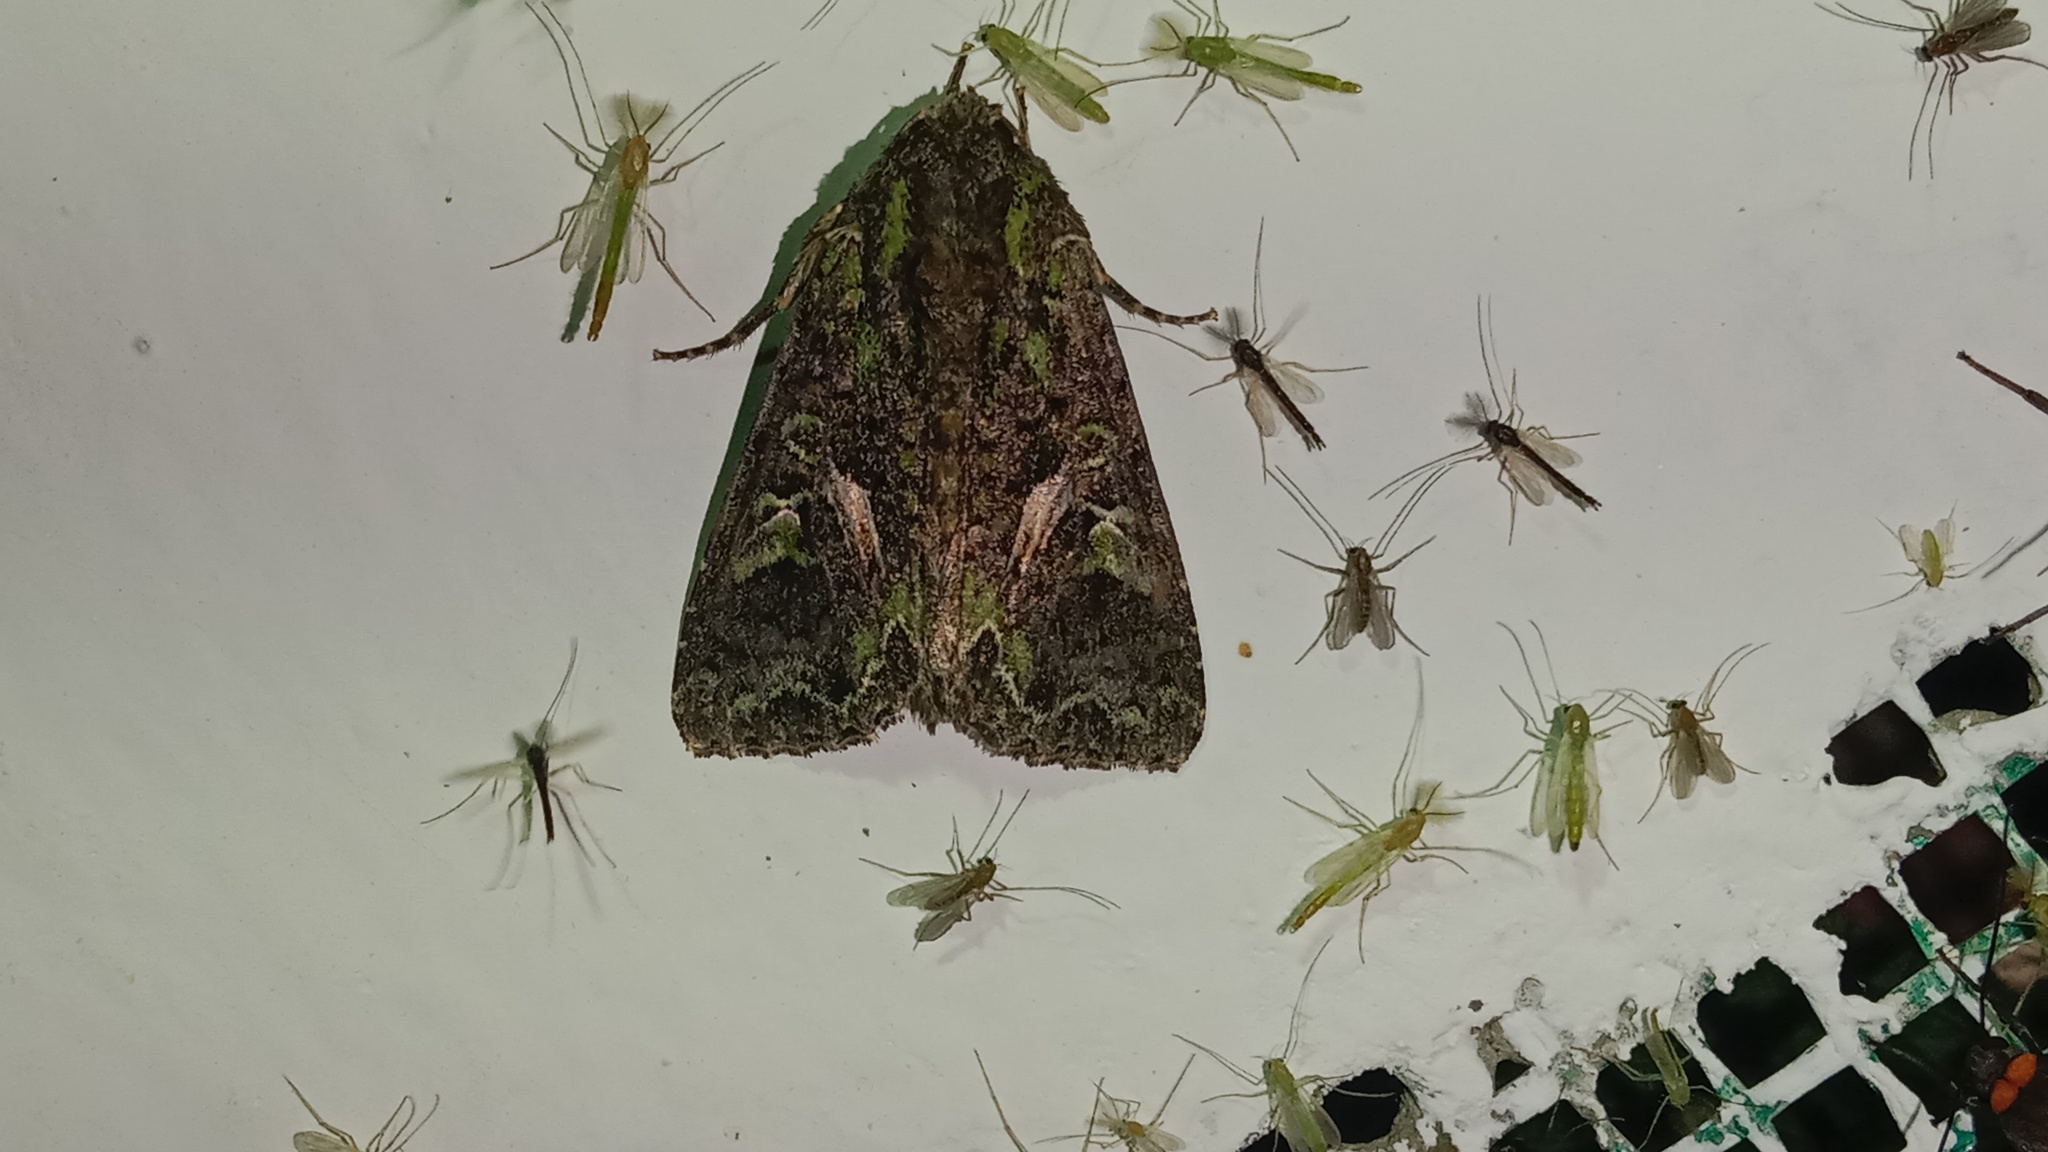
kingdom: Animalia
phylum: Arthropoda
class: Insecta
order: Lepidoptera
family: Noctuidae
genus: Trachea
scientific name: Trachea atriplicis
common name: Orache moth
